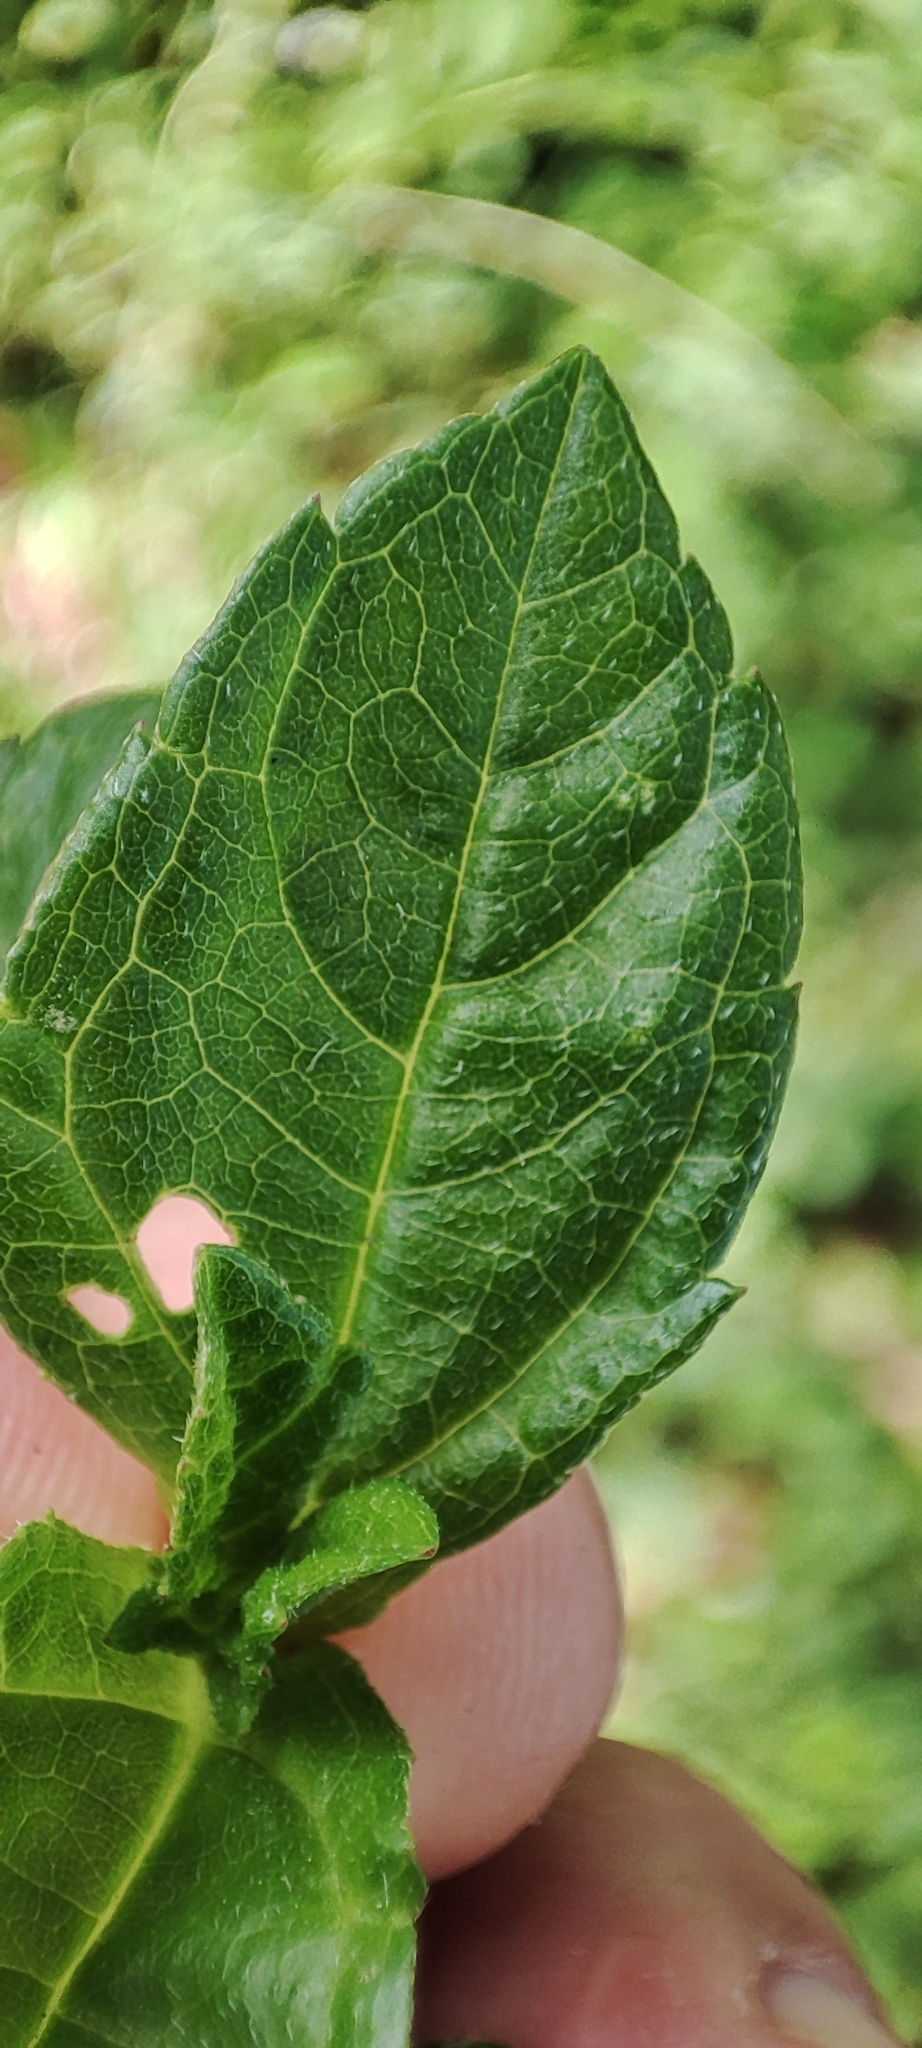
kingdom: Plantae
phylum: Tracheophyta
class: Magnoliopsida
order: Asterales
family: Asteraceae
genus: Sphagneticola
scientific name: Sphagneticola trilobata
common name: Bay biscayne creeping-oxeye
